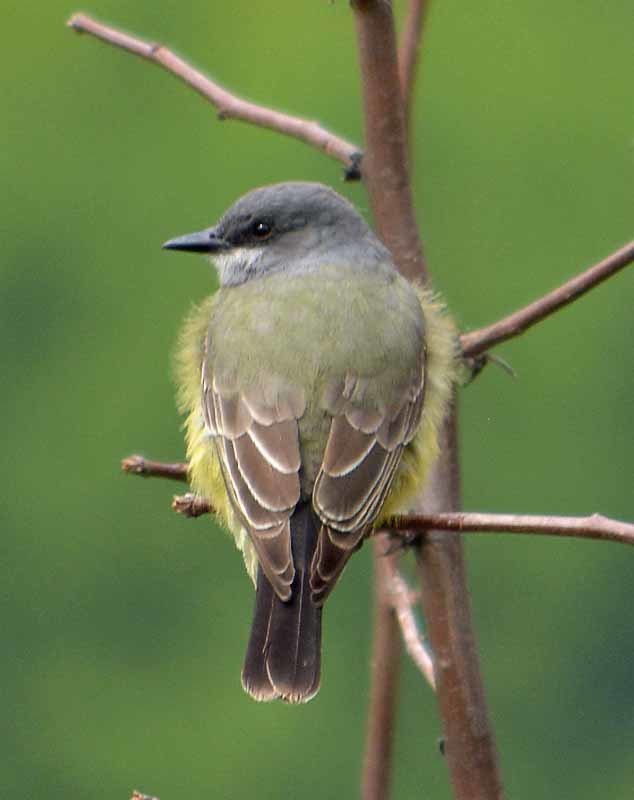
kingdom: Animalia
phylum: Chordata
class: Aves
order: Passeriformes
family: Tyrannidae
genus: Tyrannus
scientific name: Tyrannus vociferans
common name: Cassin's kingbird
